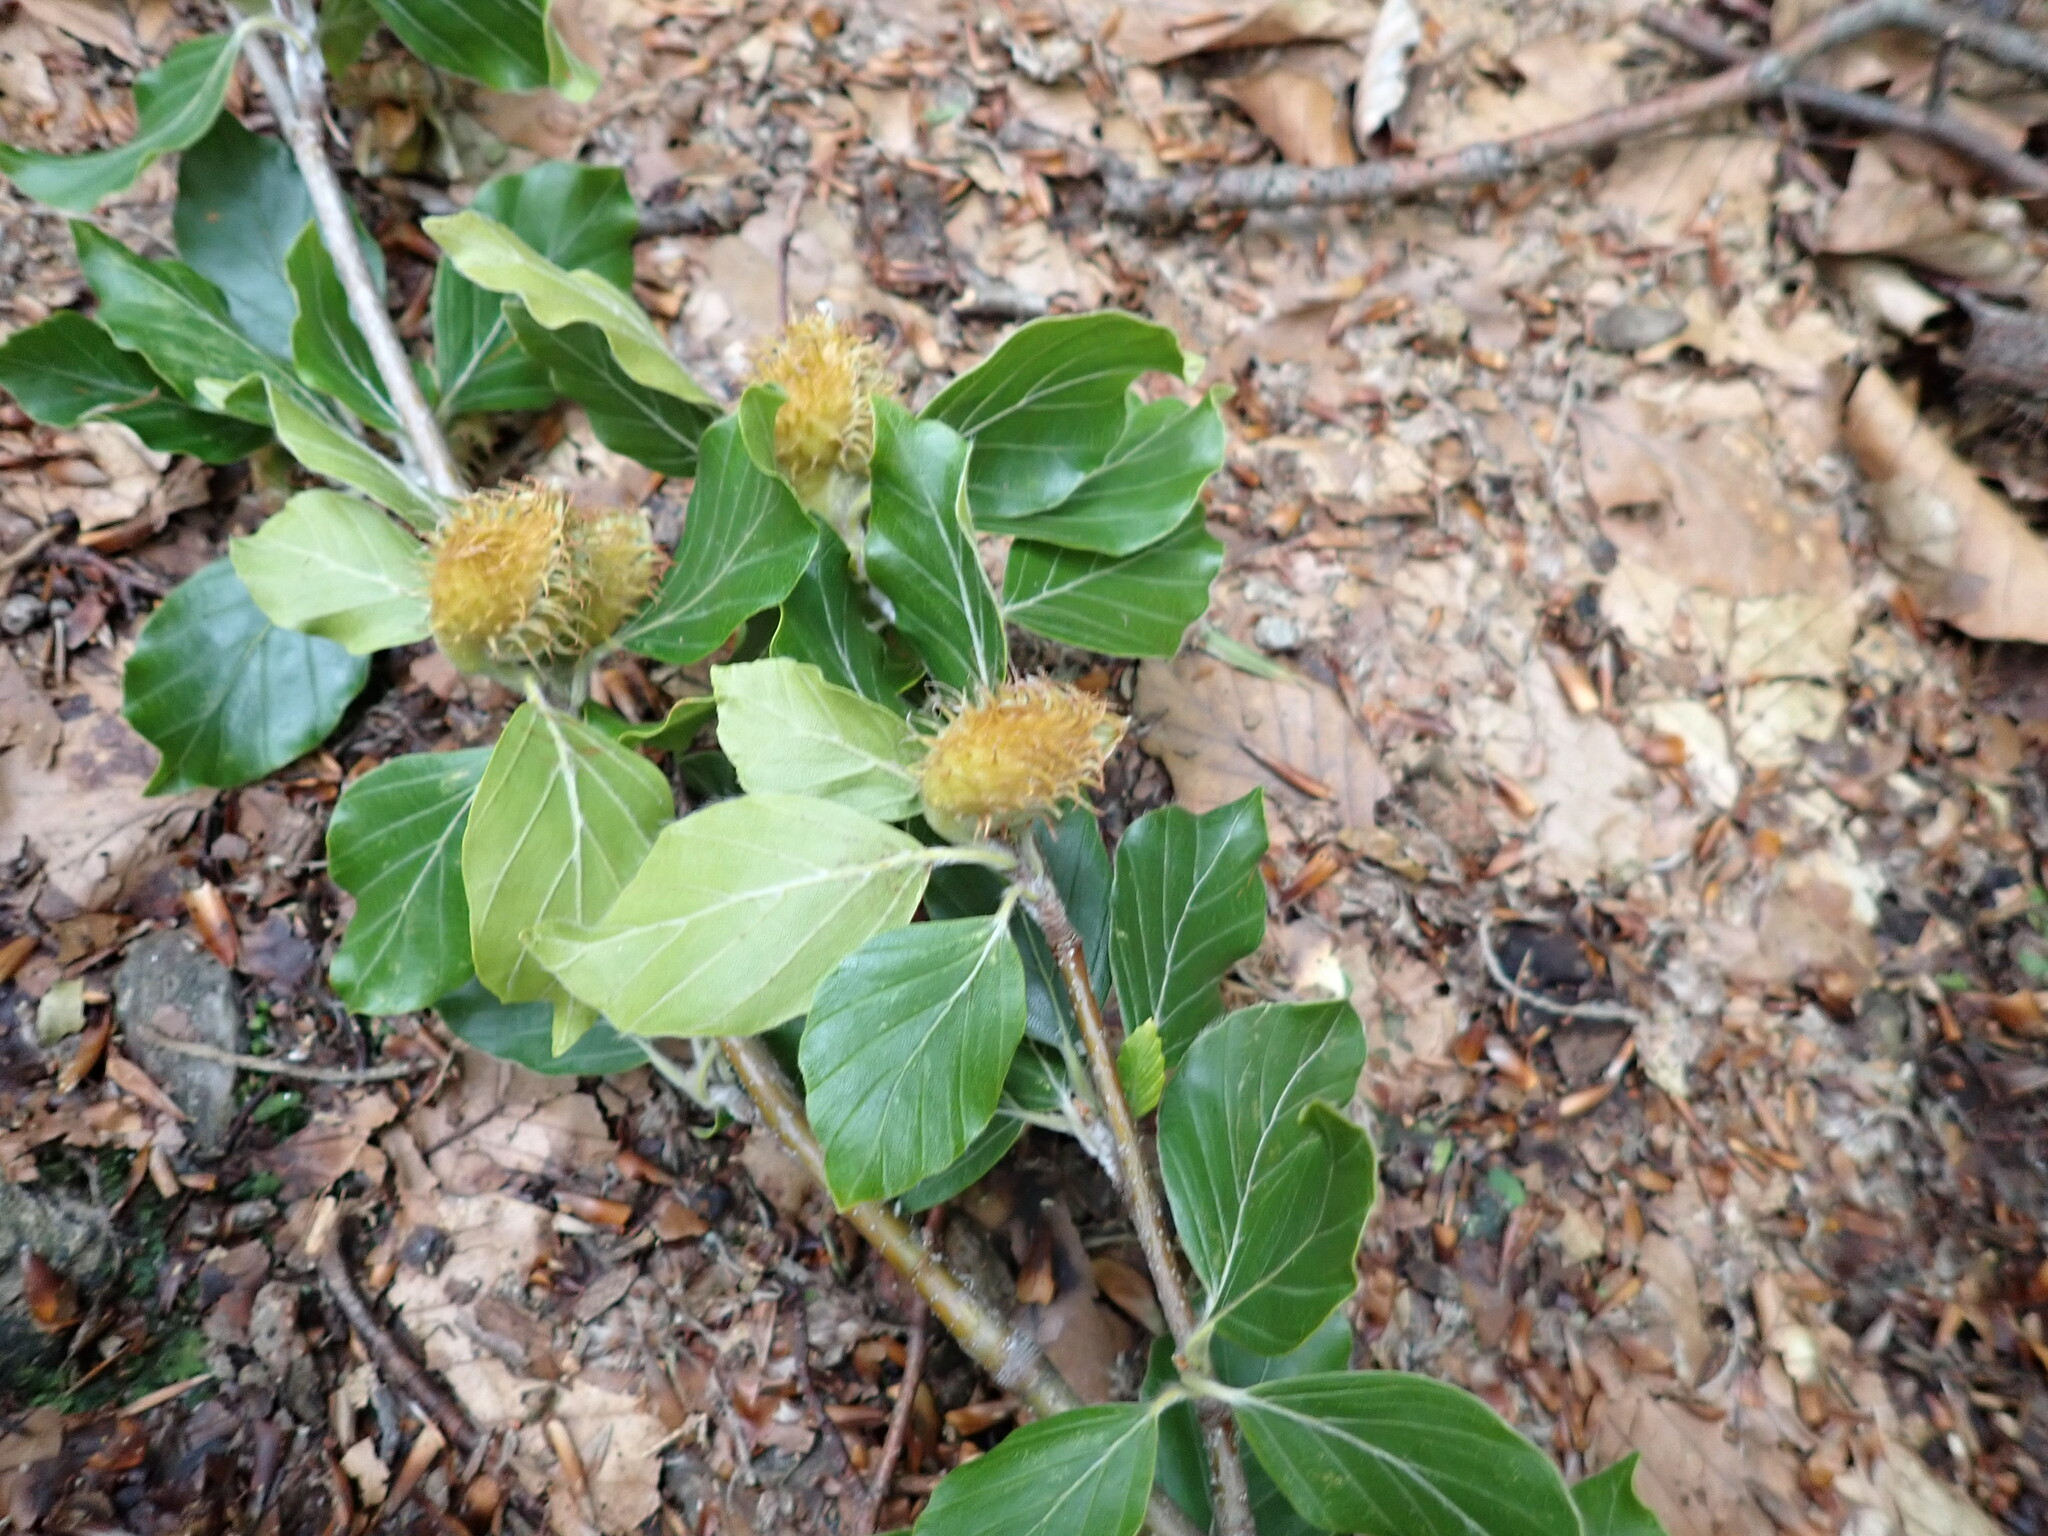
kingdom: Plantae
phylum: Tracheophyta
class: Magnoliopsida
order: Fagales
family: Fagaceae
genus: Fagus
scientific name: Fagus sylvatica
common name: Beech
